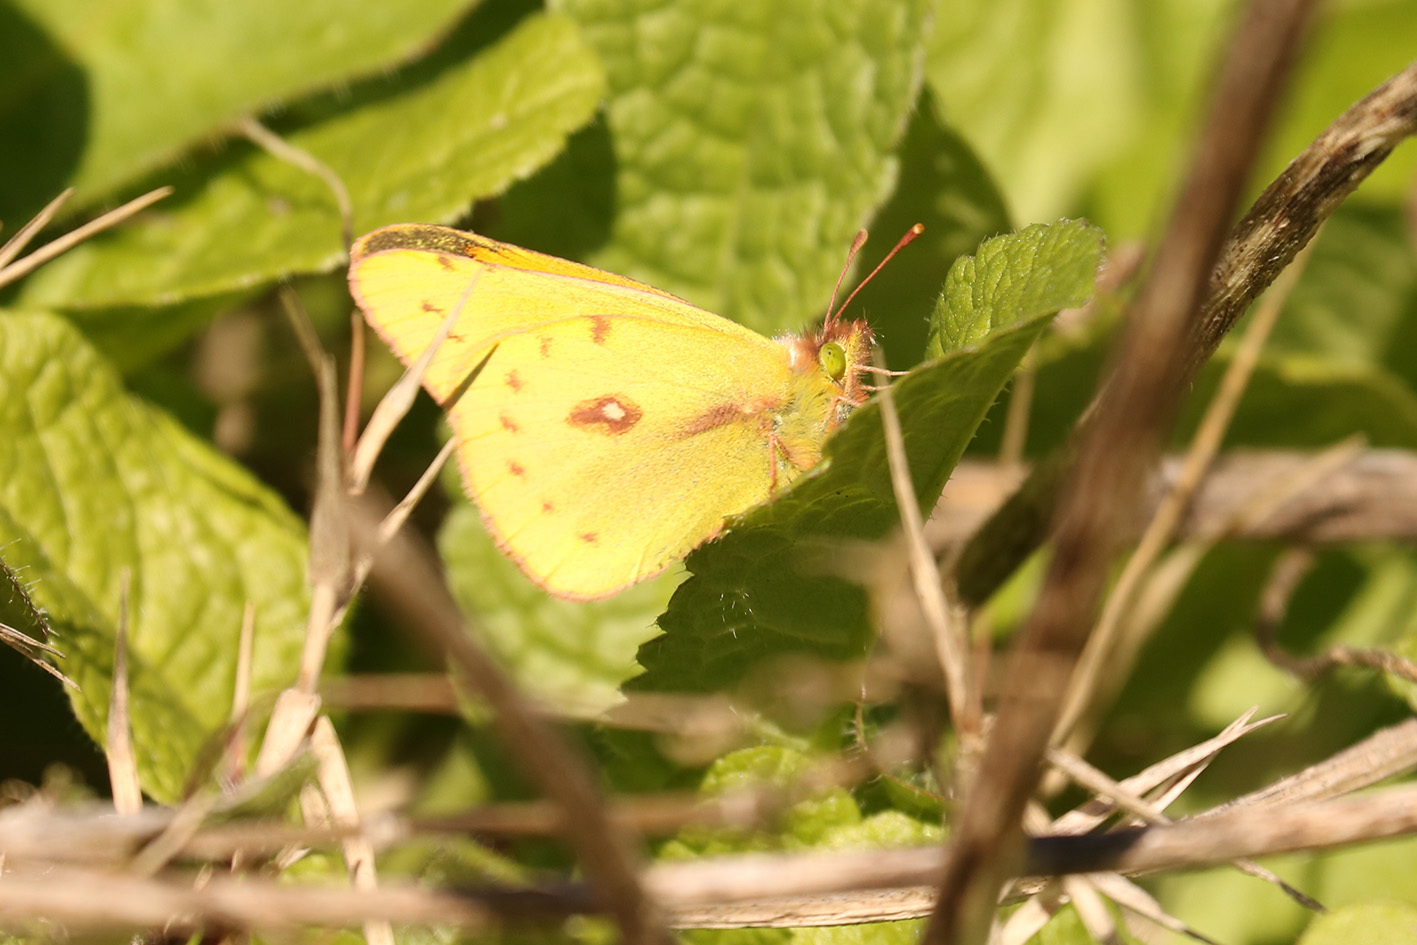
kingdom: Animalia
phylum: Arthropoda
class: Insecta
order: Lepidoptera
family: Pieridae
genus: Colias
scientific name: Colias lesbia
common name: Lesbia clouded yellow
